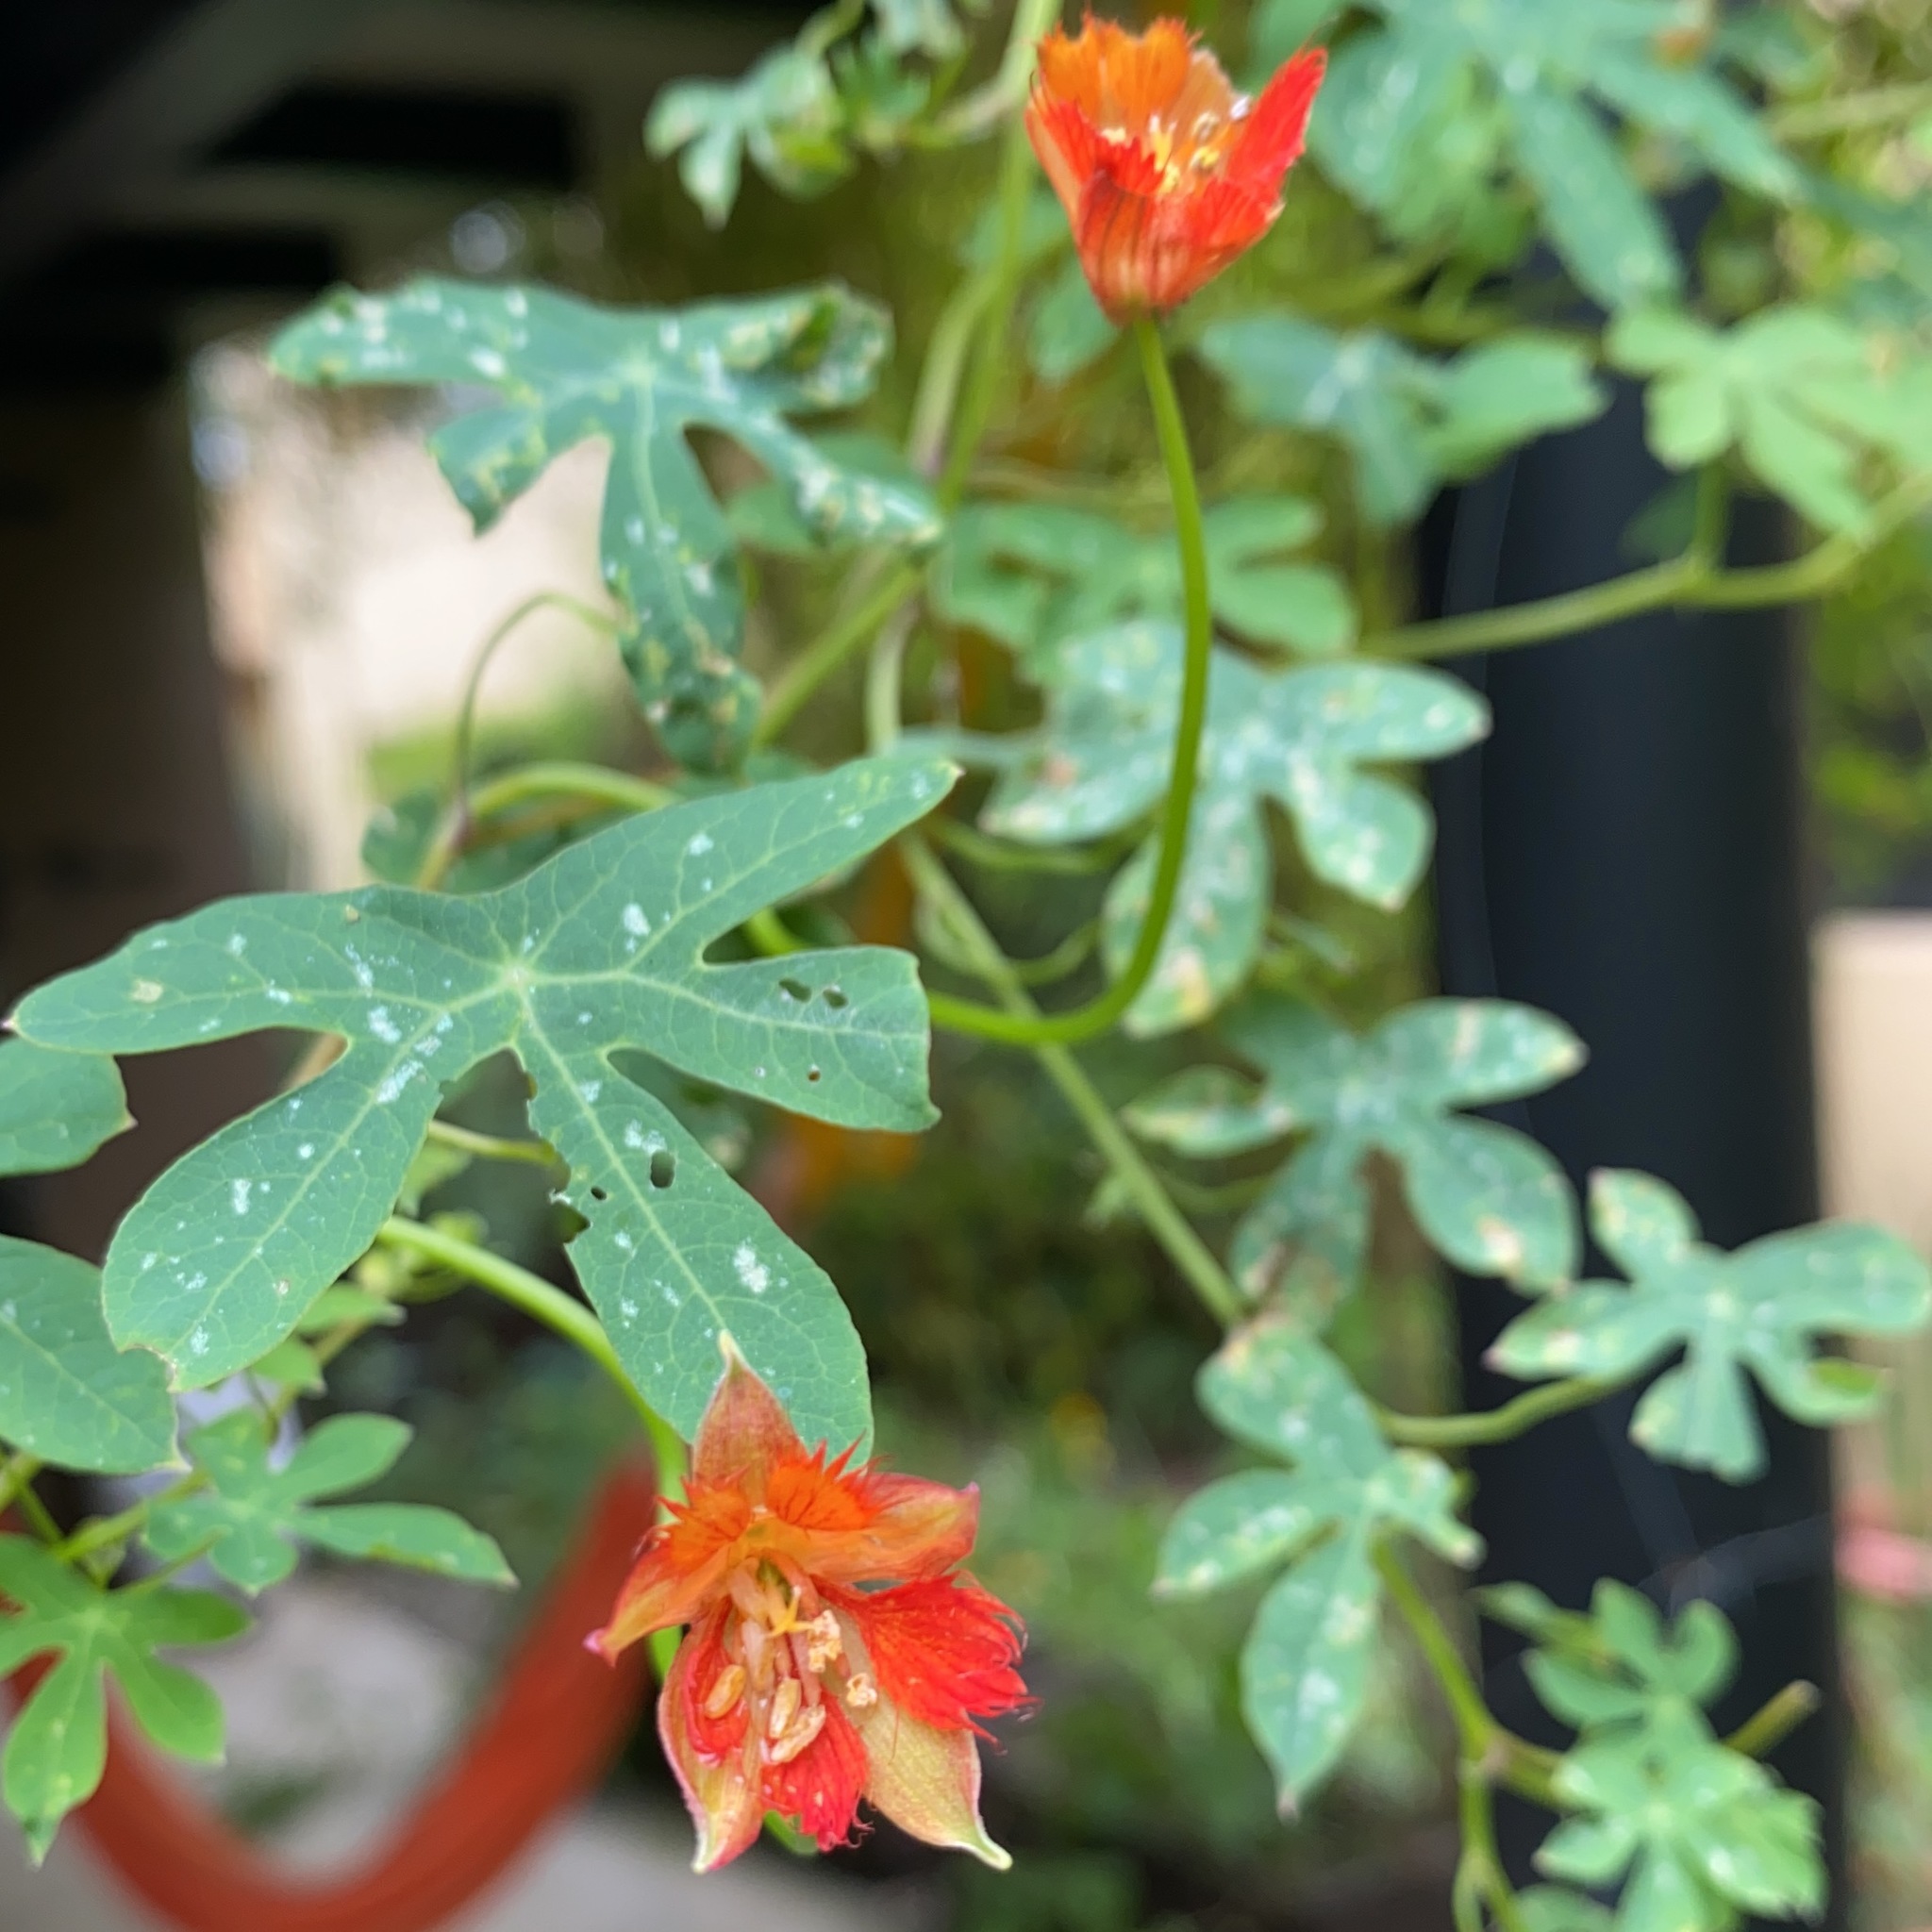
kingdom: Plantae
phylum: Tracheophyta
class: Magnoliopsida
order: Brassicales
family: Tropaeolaceae
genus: Tropaeolum
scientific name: Tropaeolum smithii
